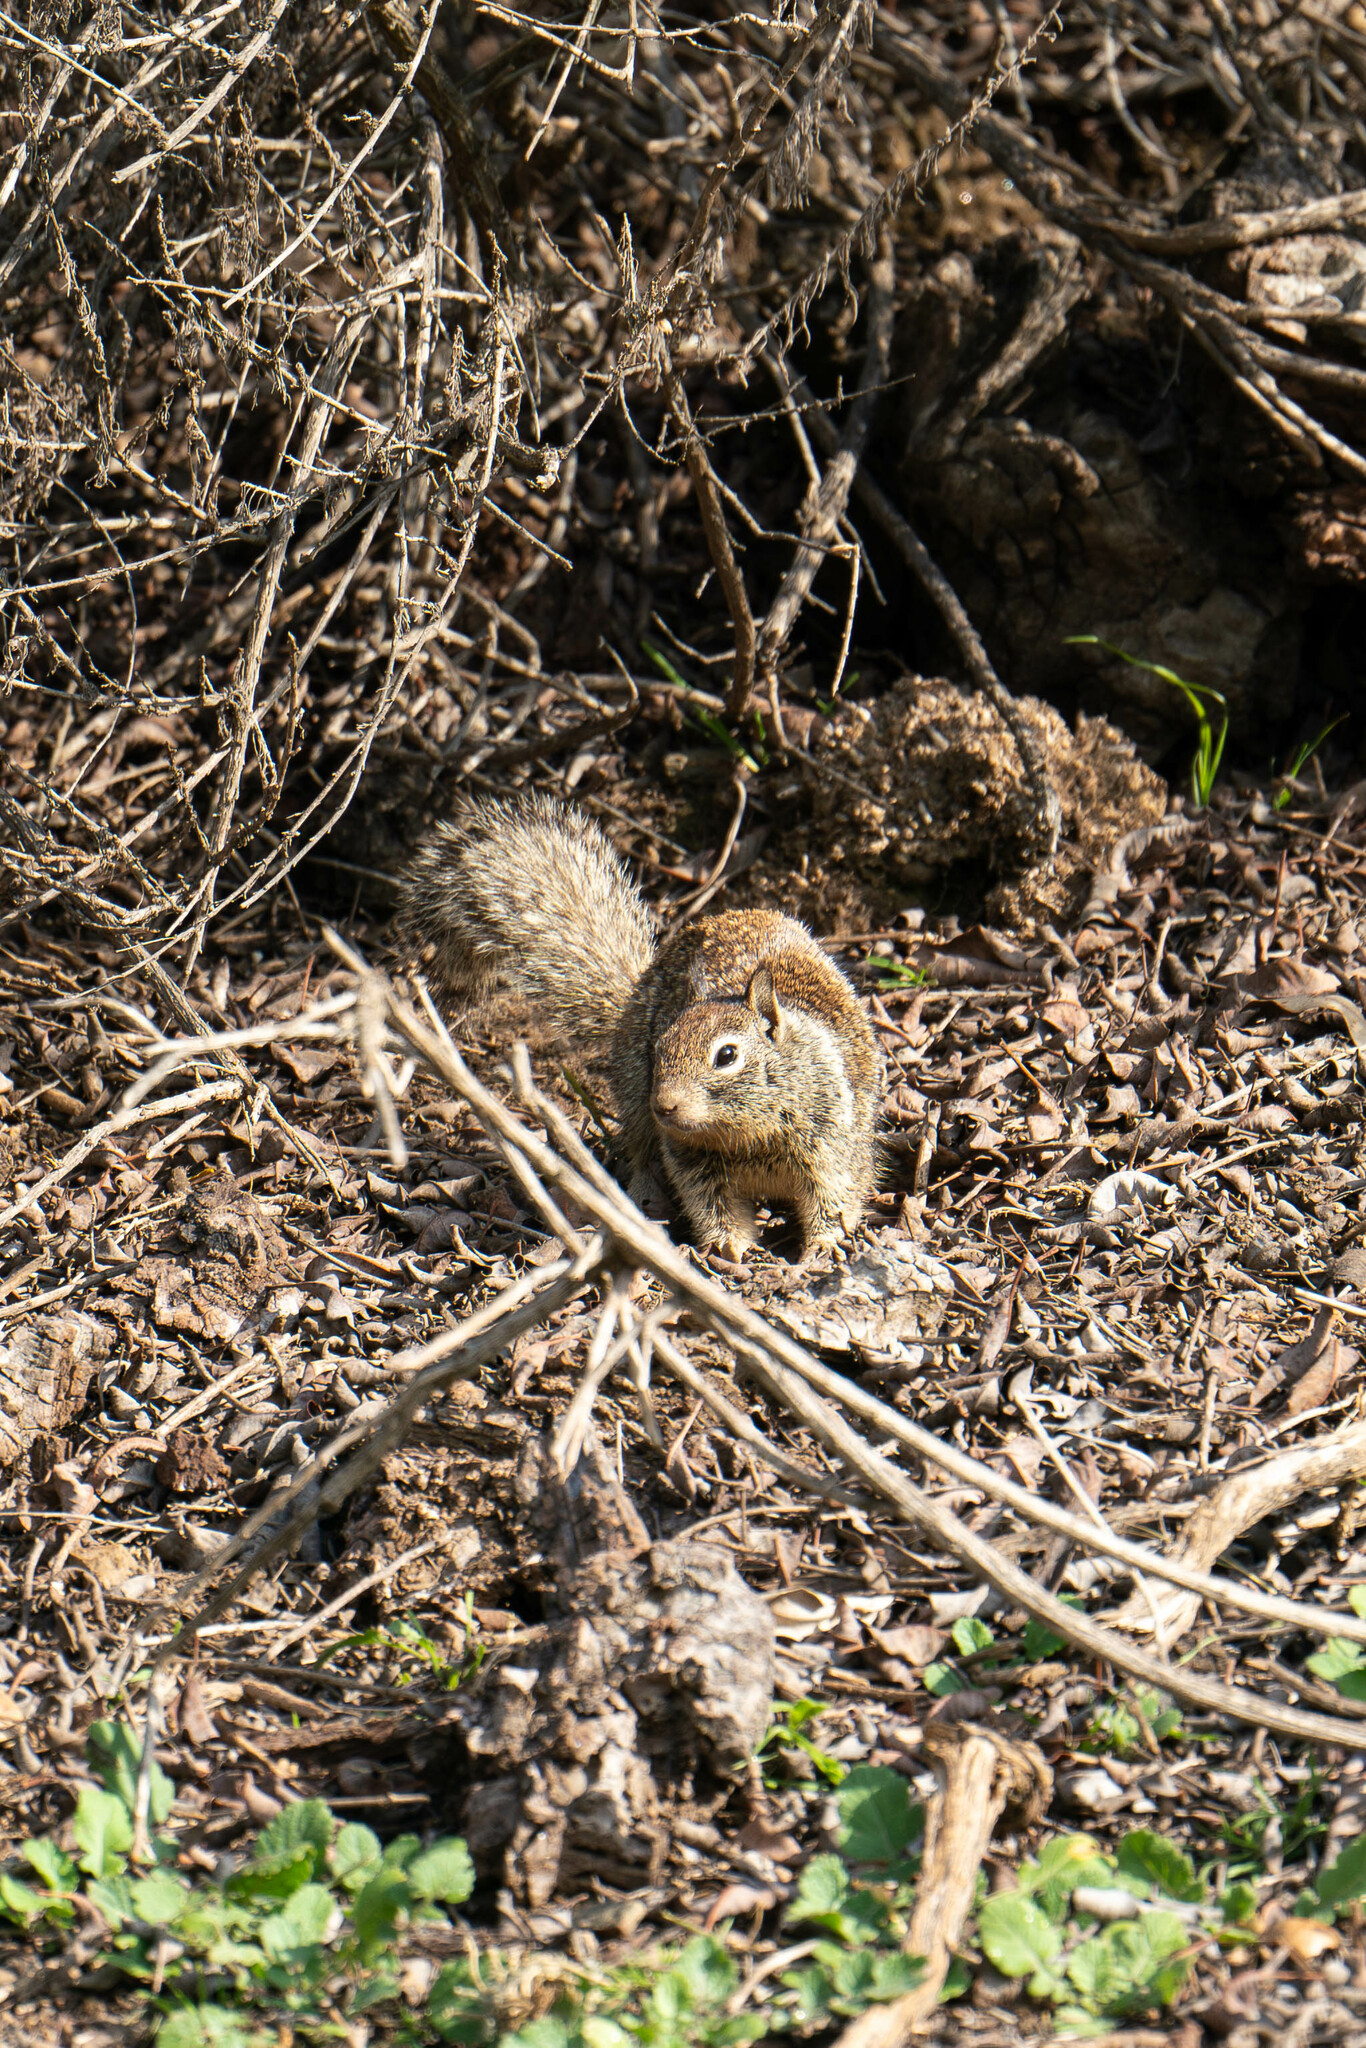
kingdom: Animalia
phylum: Chordata
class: Mammalia
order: Rodentia
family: Sciuridae
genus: Otospermophilus
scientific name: Otospermophilus beecheyi
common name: California ground squirrel
